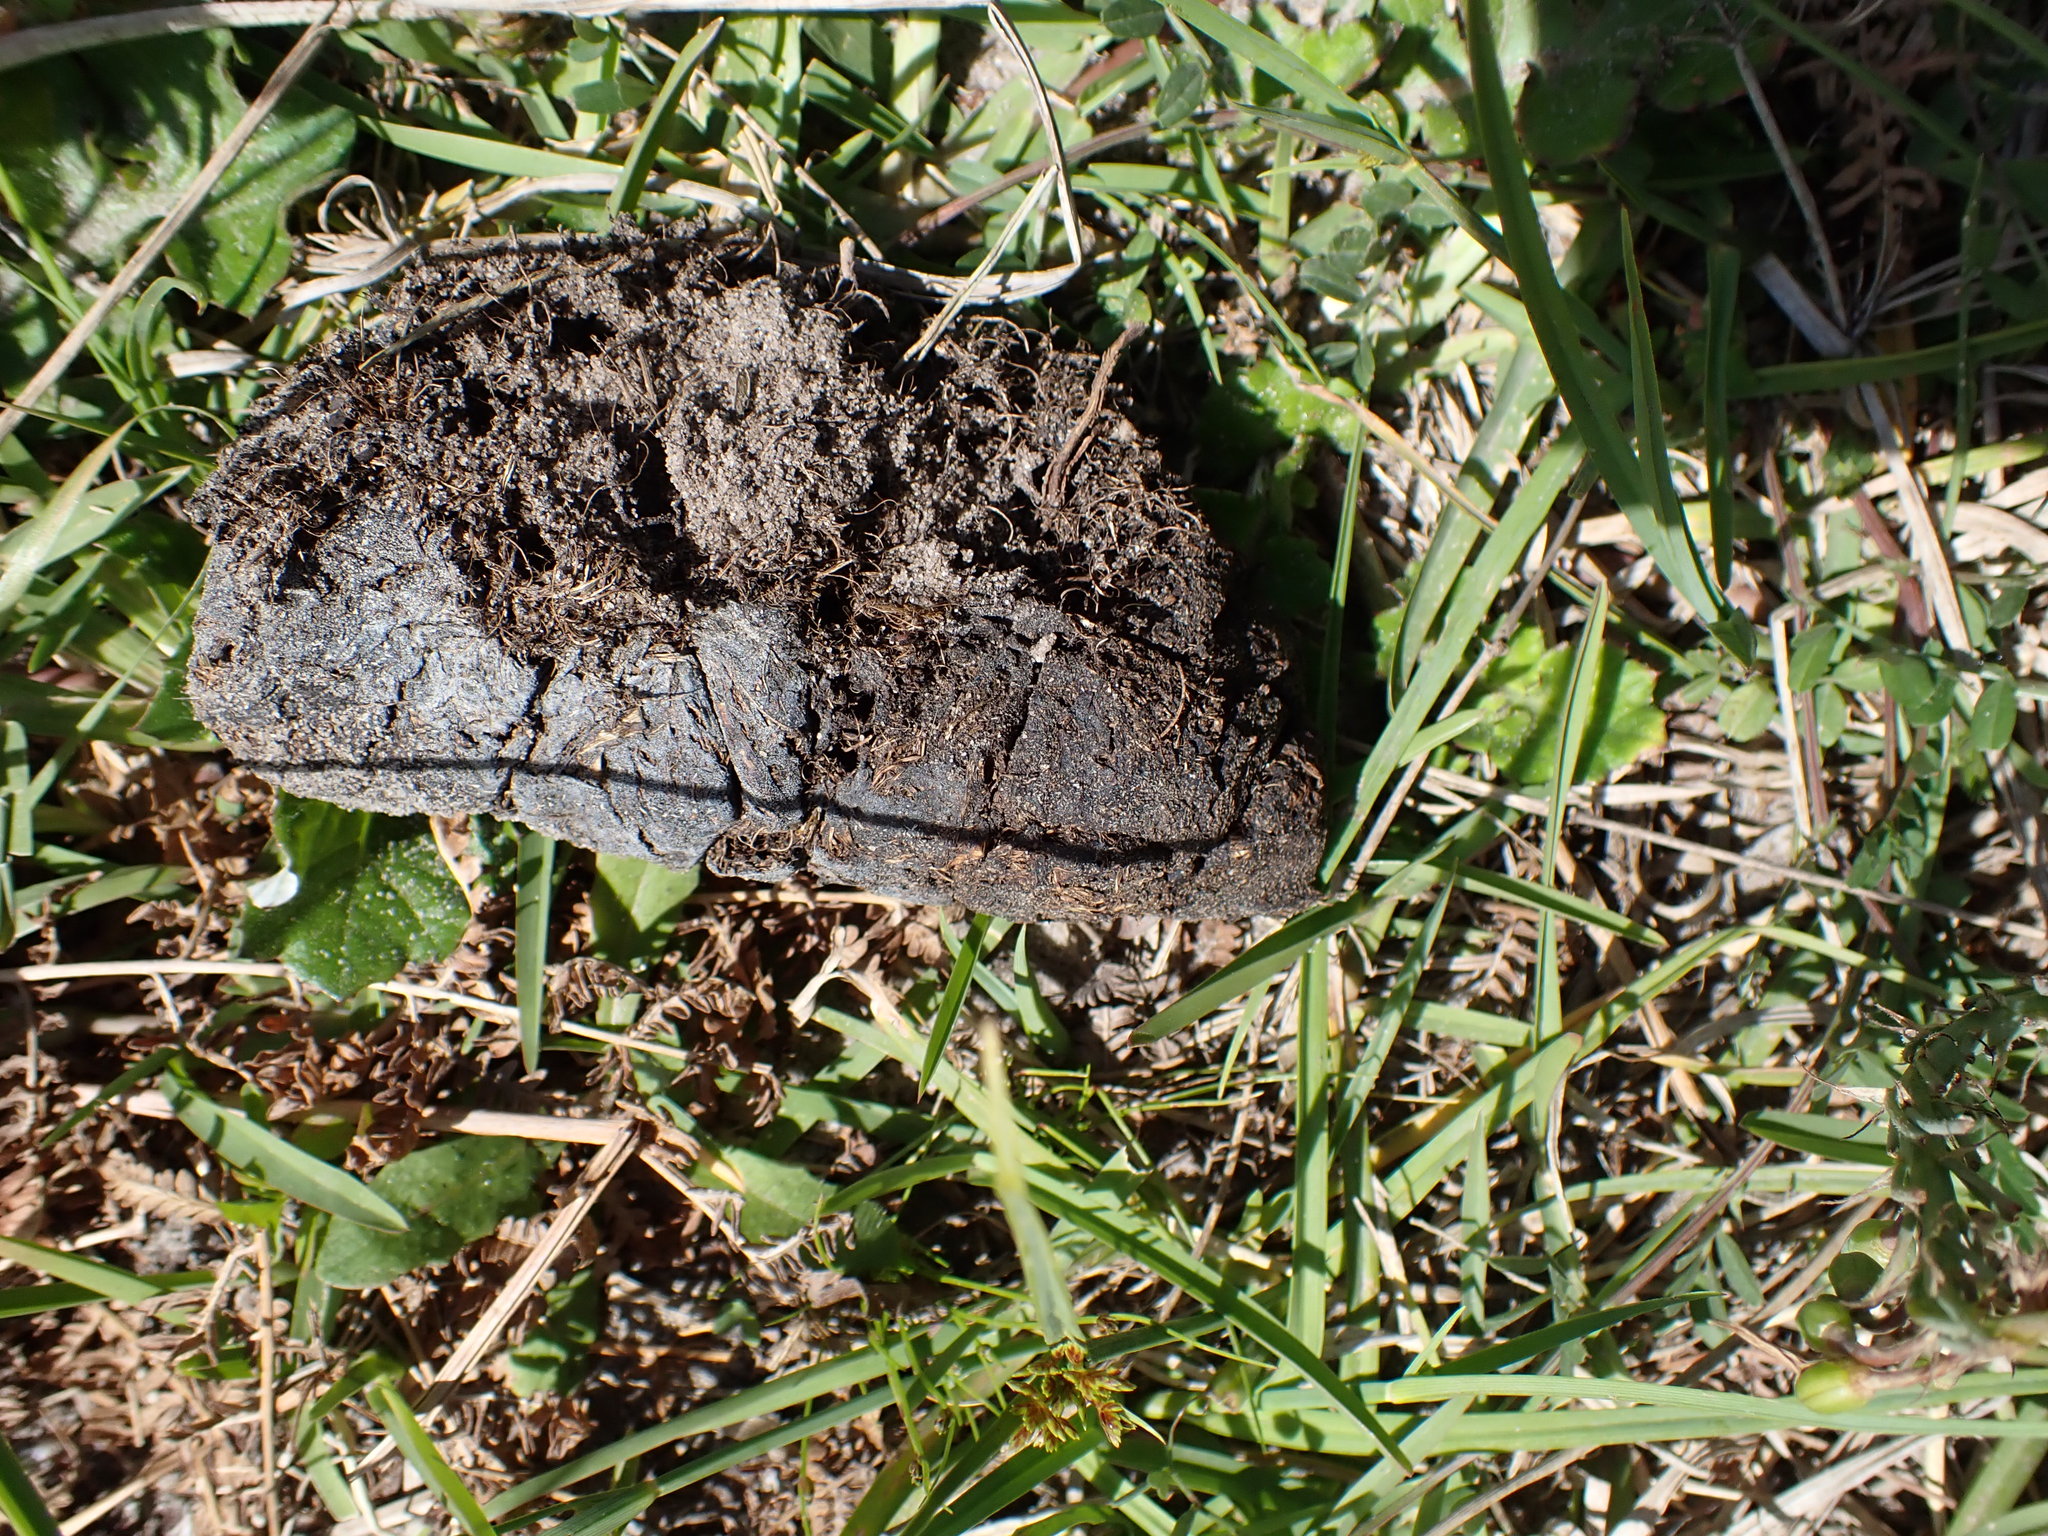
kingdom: Animalia
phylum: Chordata
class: Mammalia
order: Artiodactyla
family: Suidae
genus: Potamochoerus
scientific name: Potamochoerus larvatus
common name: Bushpig
